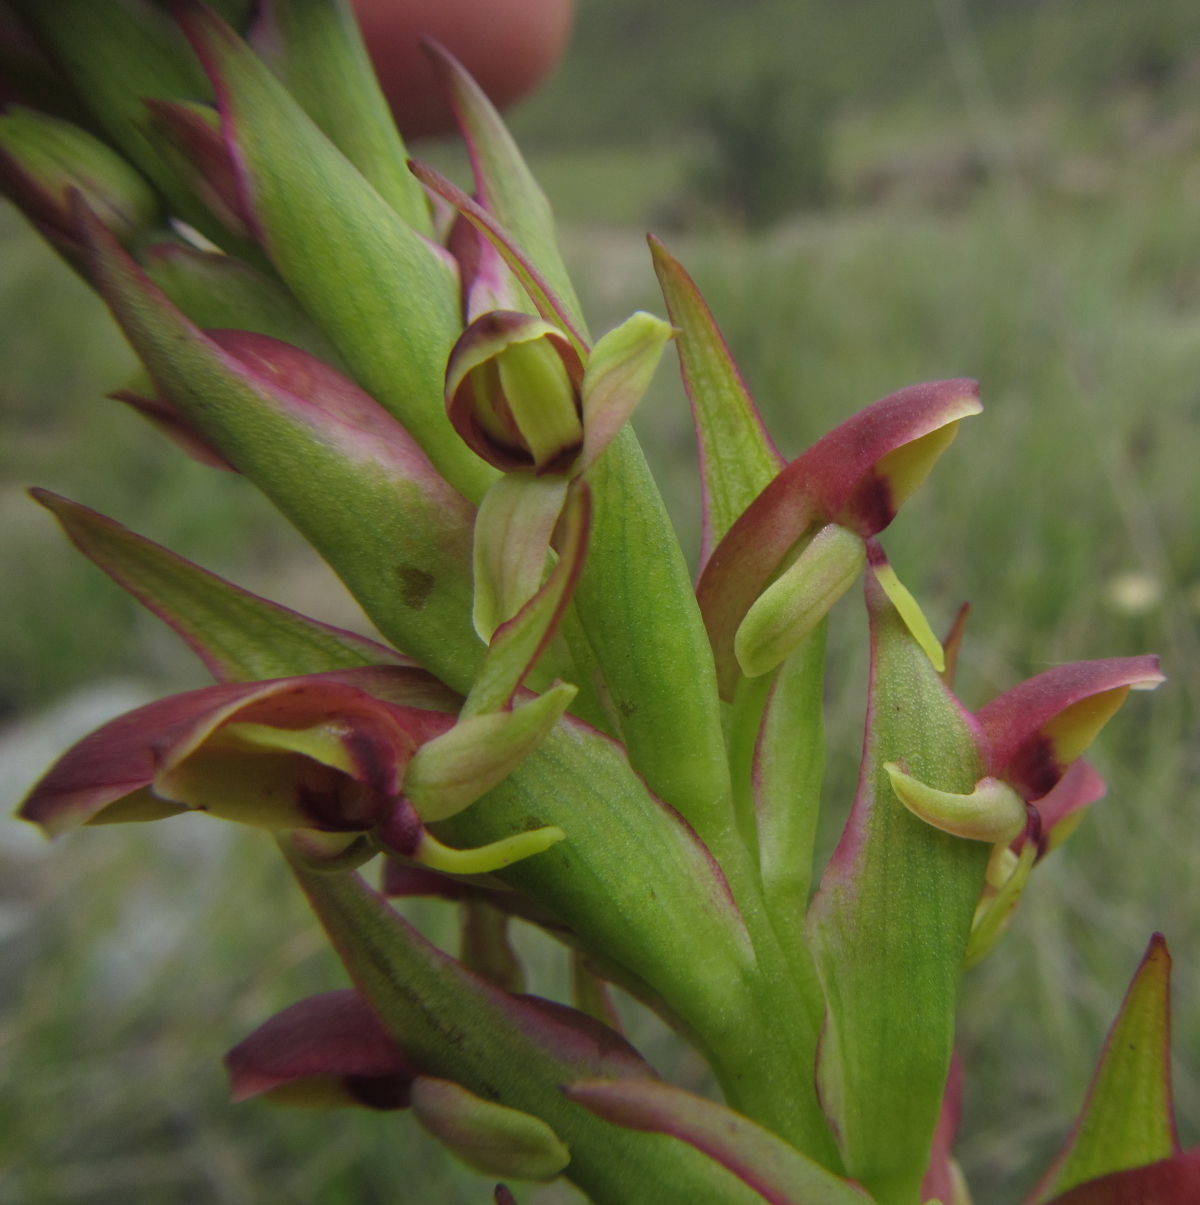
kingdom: Plantae
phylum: Tracheophyta
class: Liliopsida
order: Asparagales
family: Orchidaceae
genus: Disa
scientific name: Disa brevicornis
